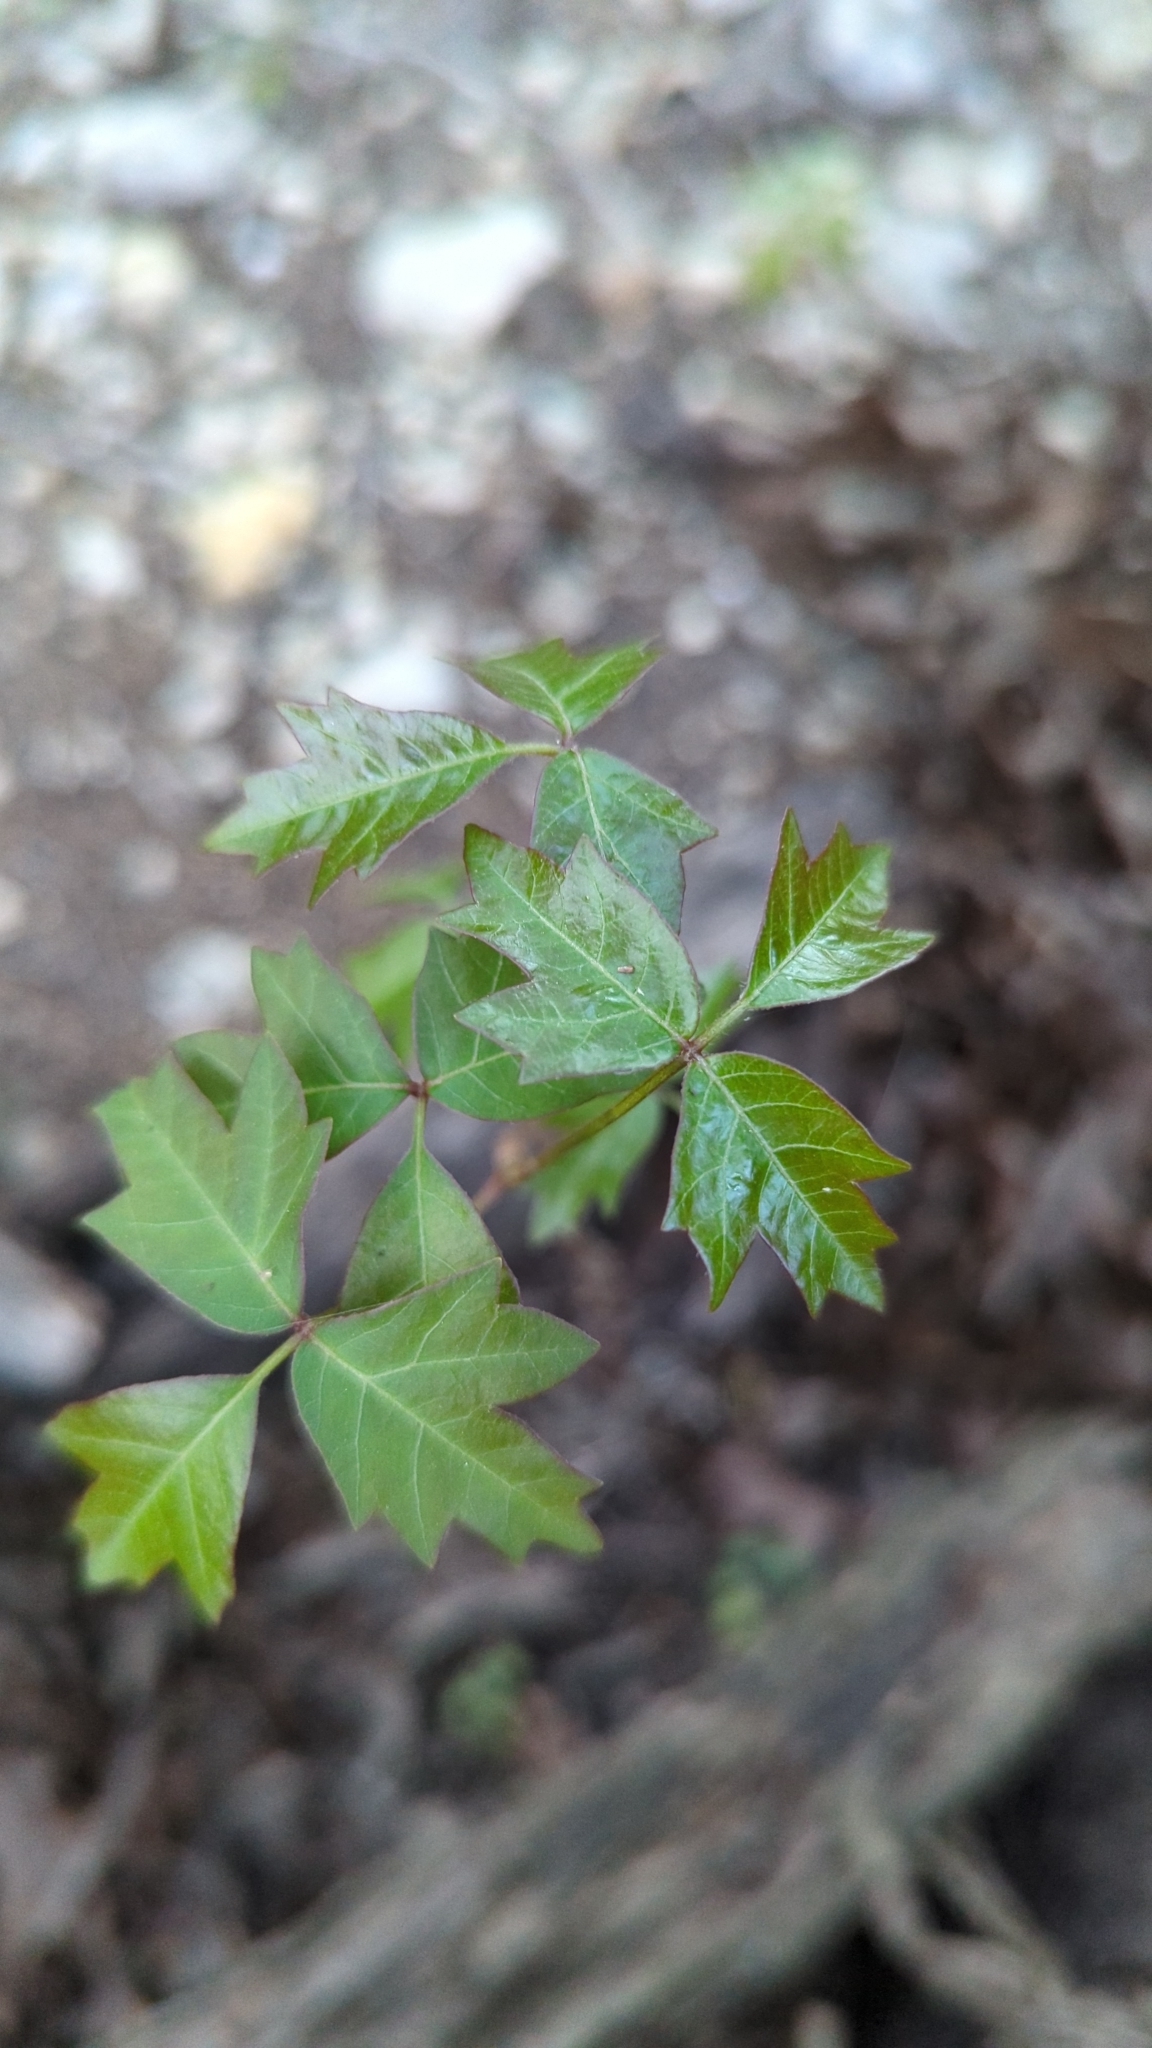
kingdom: Plantae
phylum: Tracheophyta
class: Magnoliopsida
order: Sapindales
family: Anacardiaceae
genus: Toxicodendron
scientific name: Toxicodendron radicans
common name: Poison ivy
